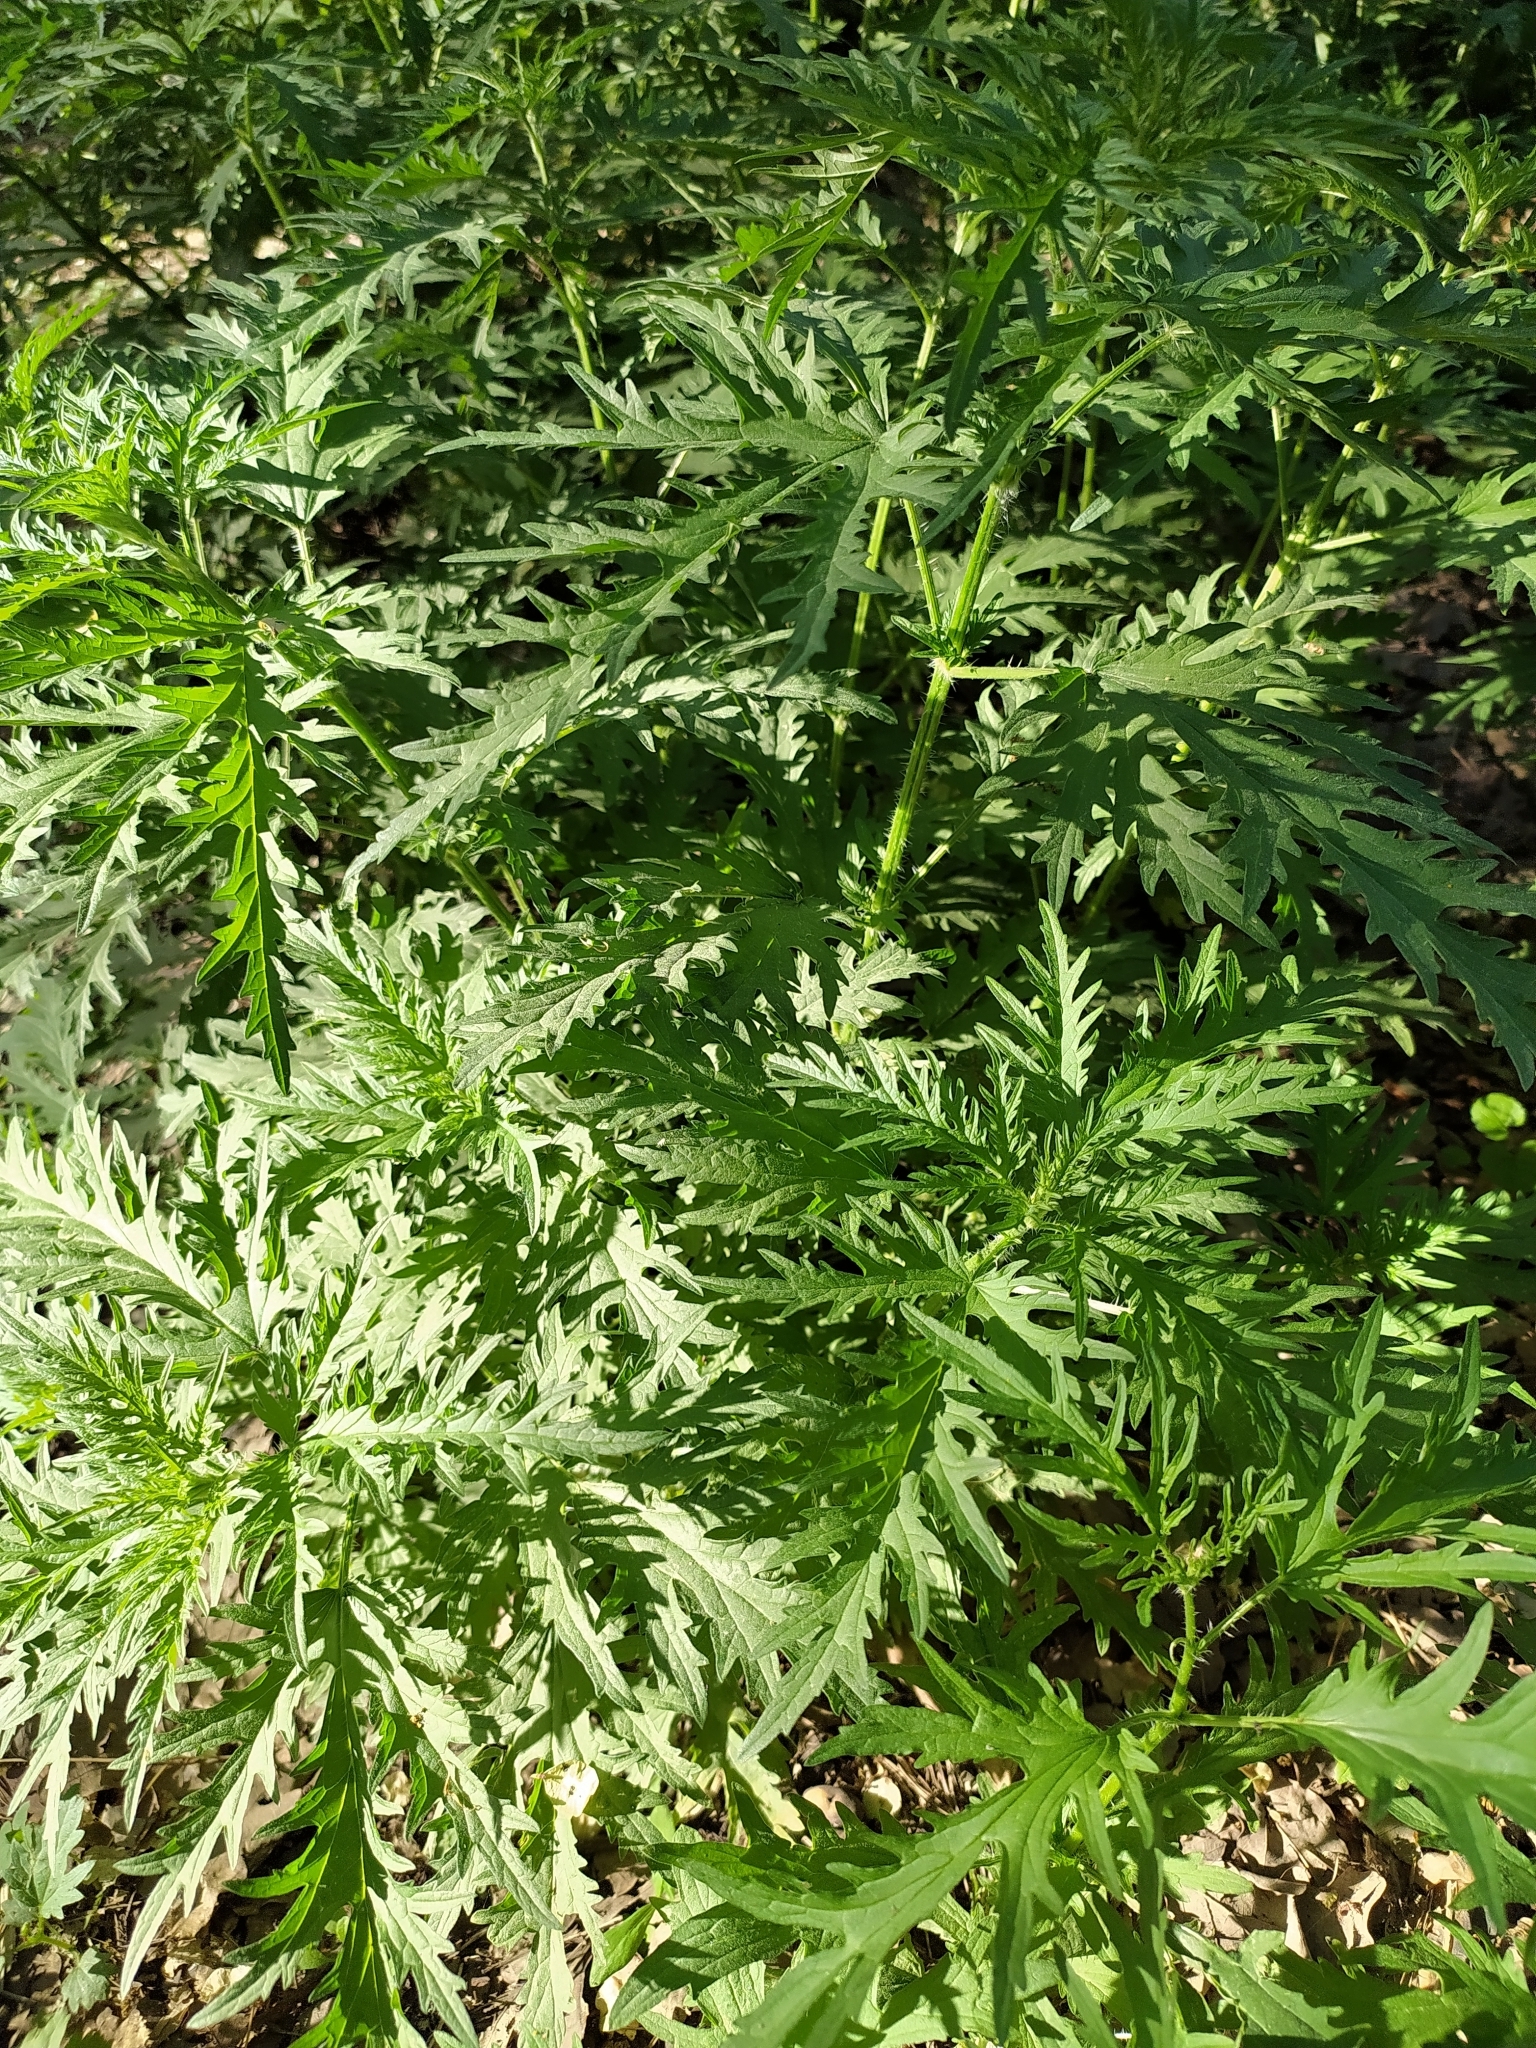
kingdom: Plantae
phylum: Tracheophyta
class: Magnoliopsida
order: Rosales
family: Urticaceae
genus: Urtica
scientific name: Urtica cannabina
